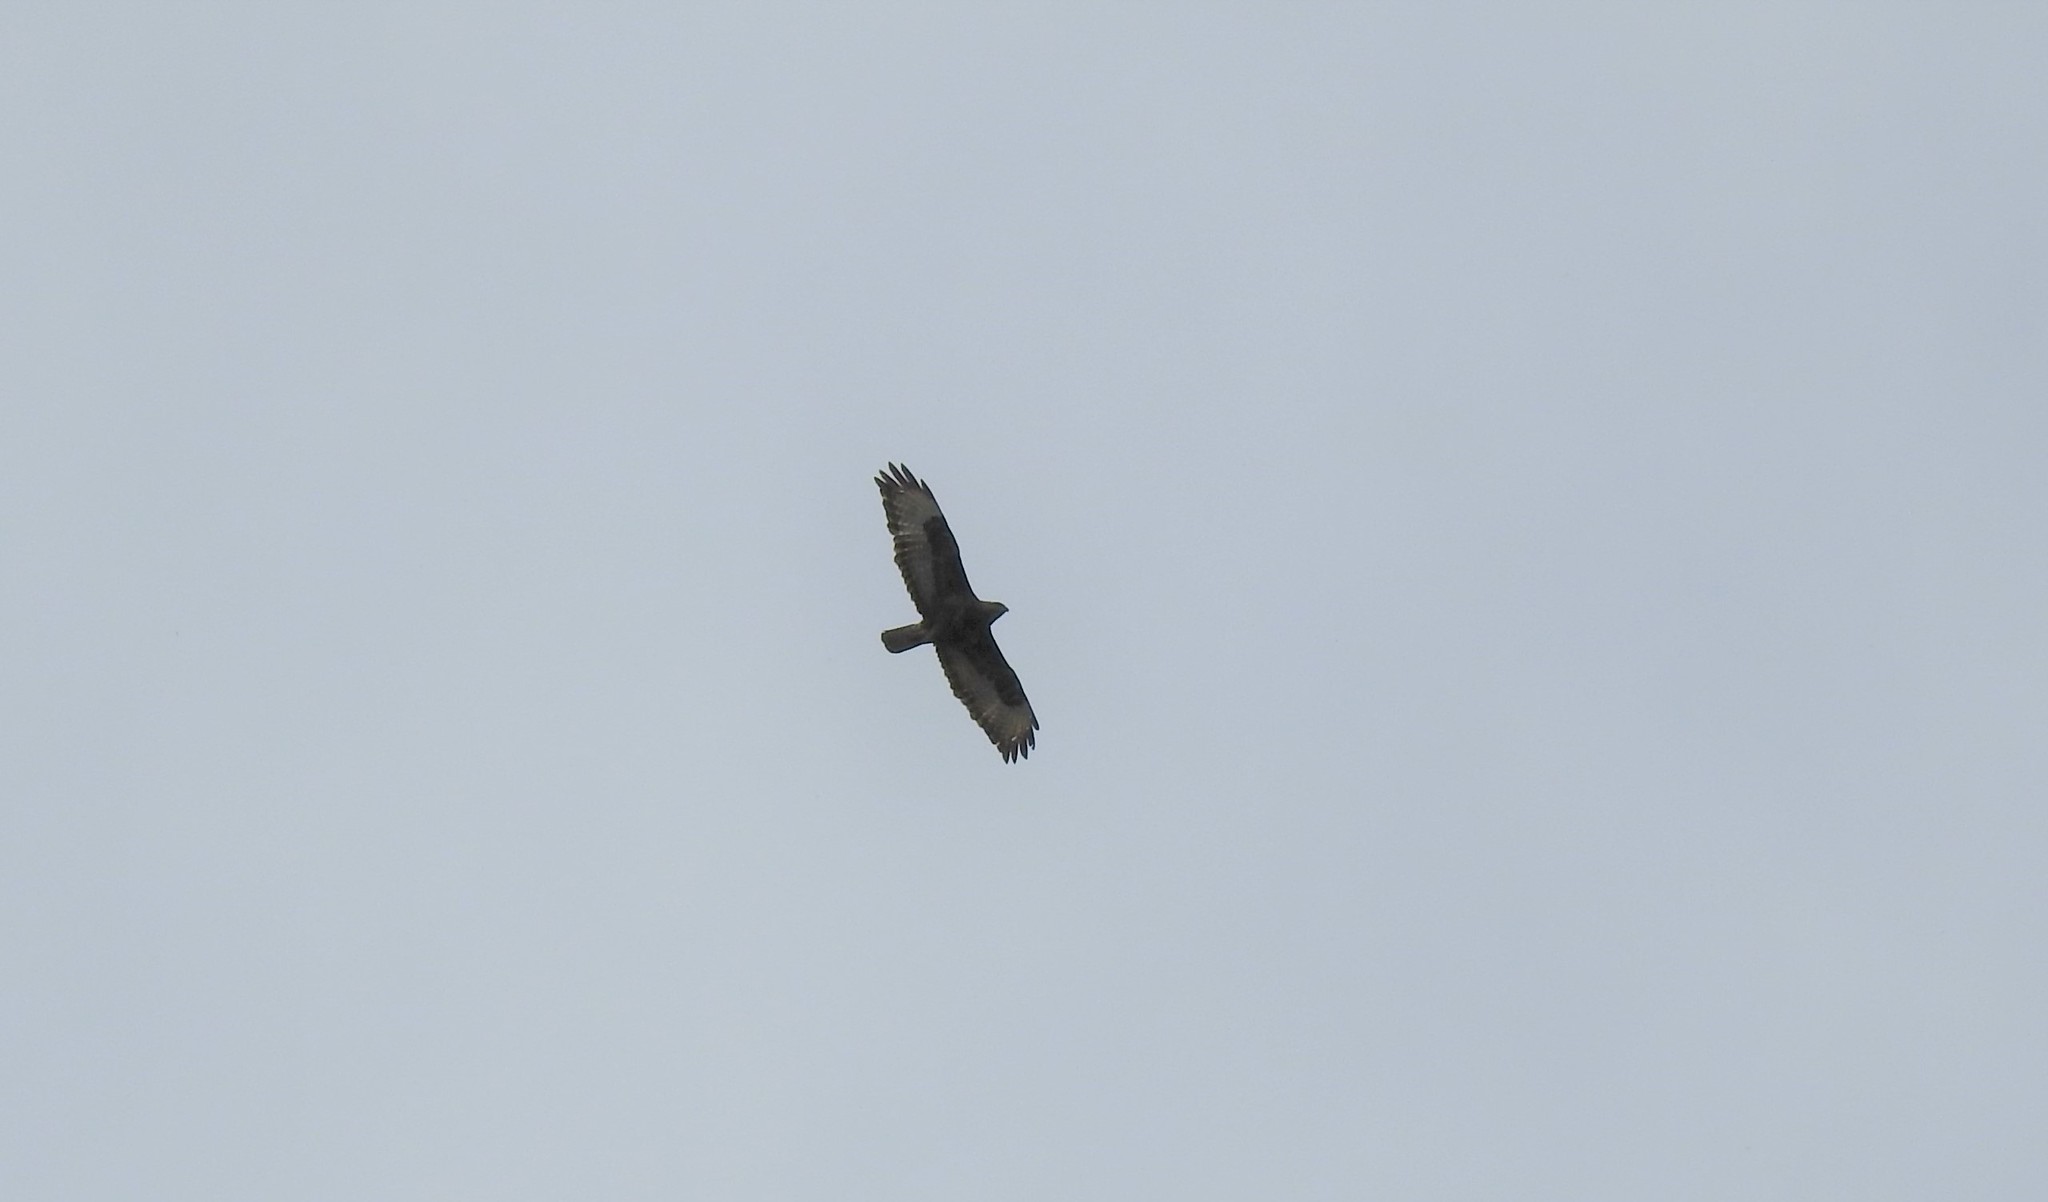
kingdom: Animalia
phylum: Chordata
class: Aves
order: Accipitriformes
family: Accipitridae
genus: Buteo
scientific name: Buteo buteo
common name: Common buzzard
